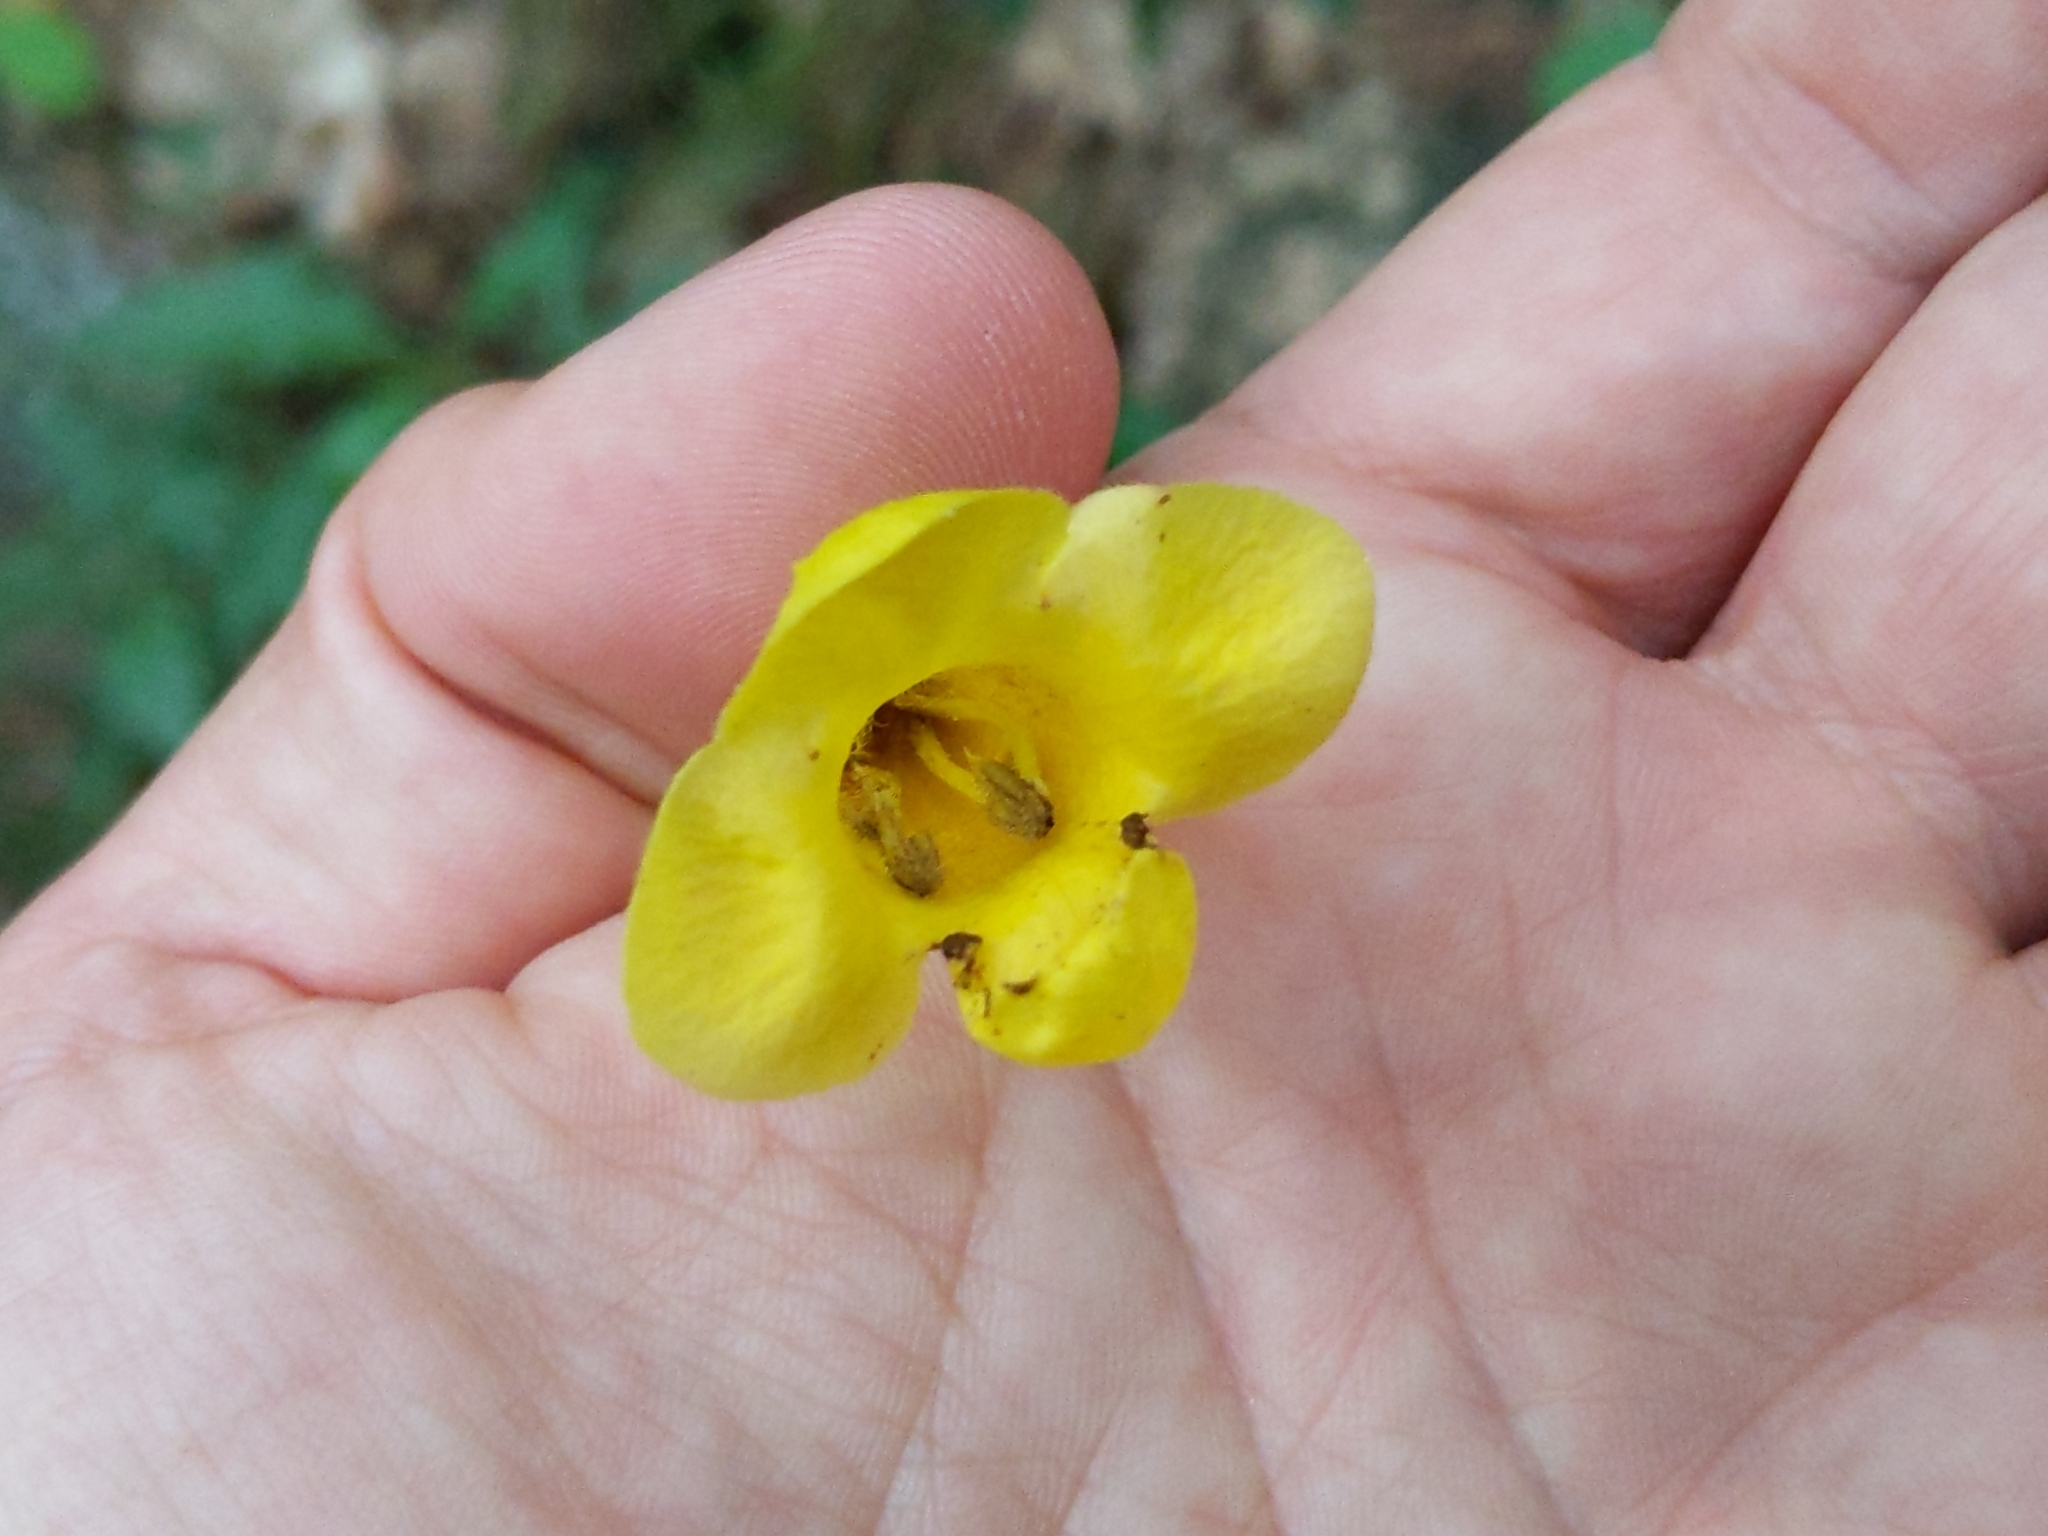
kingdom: Plantae
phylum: Tracheophyta
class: Magnoliopsida
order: Lamiales
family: Orobanchaceae
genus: Aureolaria
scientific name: Aureolaria flava
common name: Smooth false foxglove
